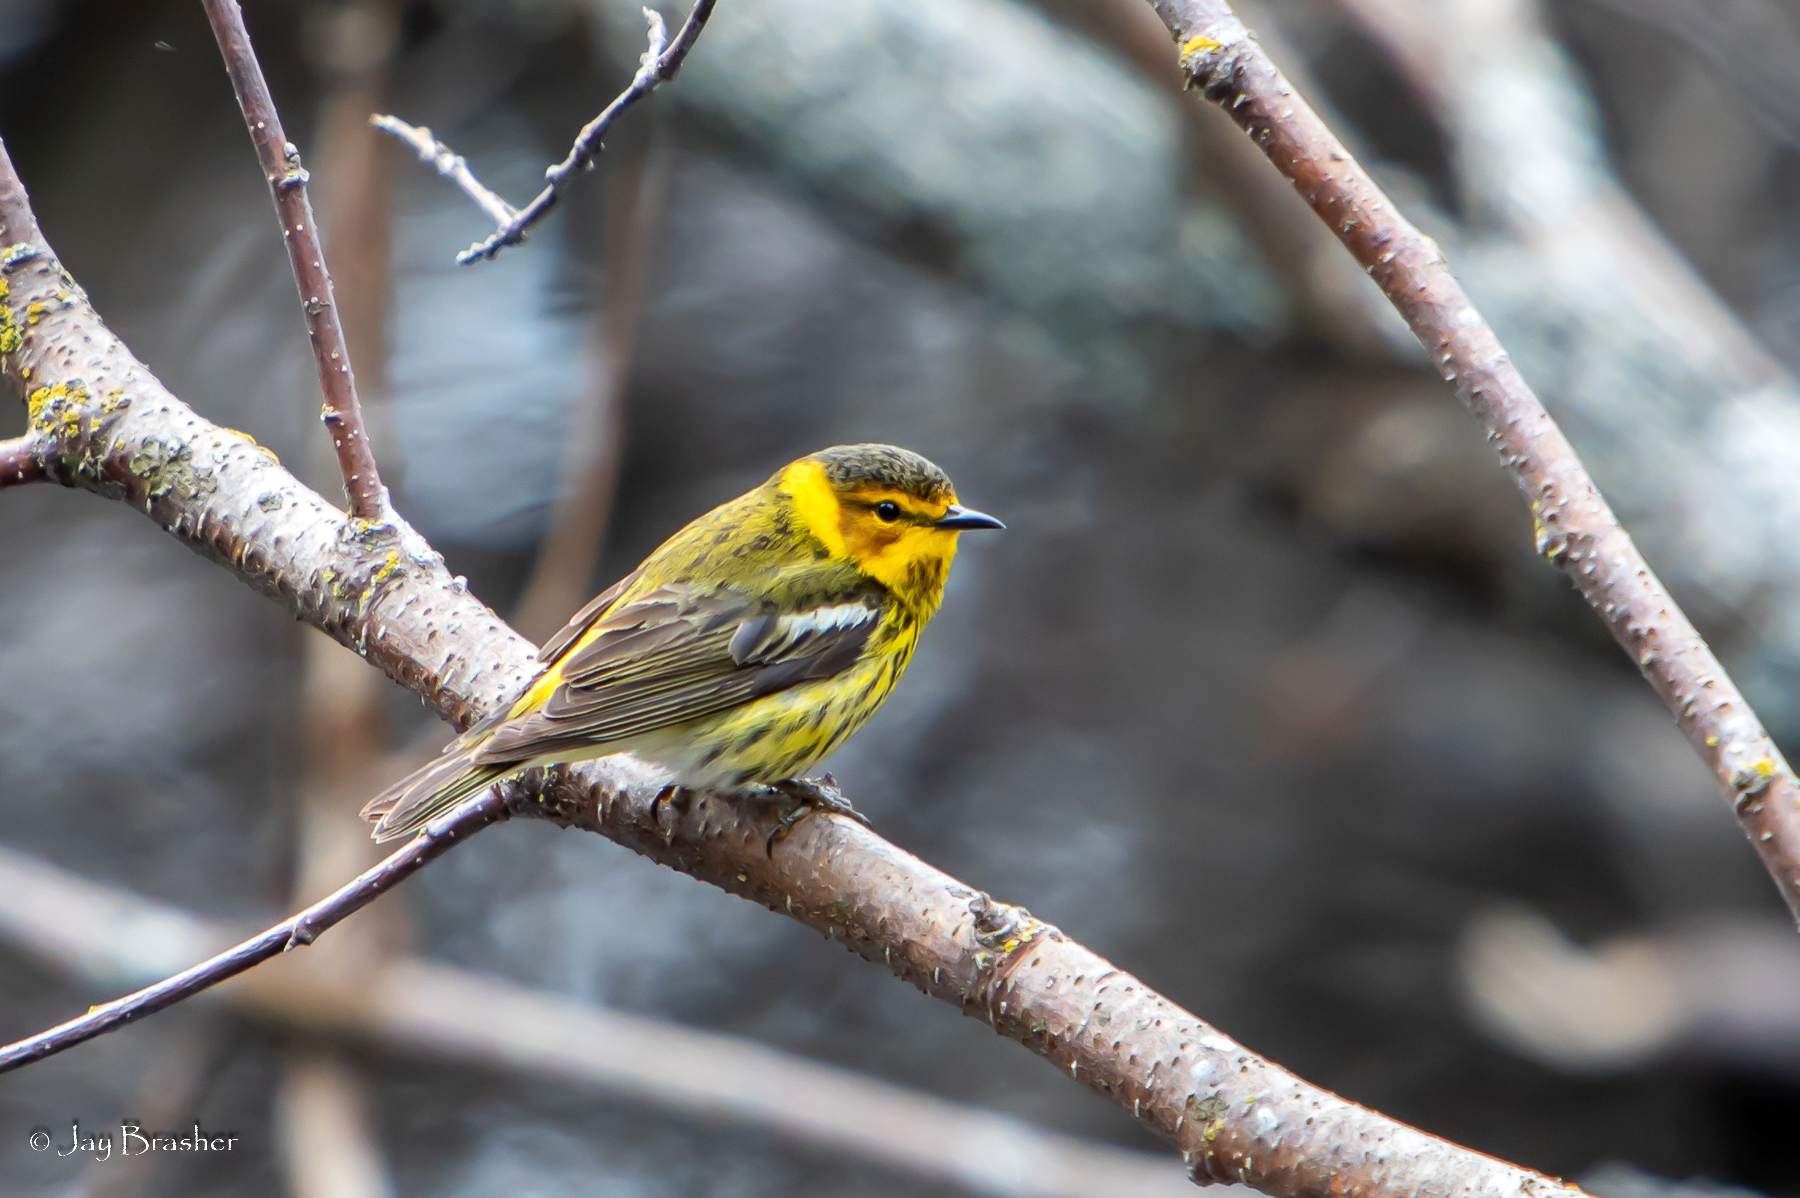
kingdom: Animalia
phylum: Chordata
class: Aves
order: Passeriformes
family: Parulidae
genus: Setophaga
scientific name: Setophaga tigrina
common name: Cape may warbler
